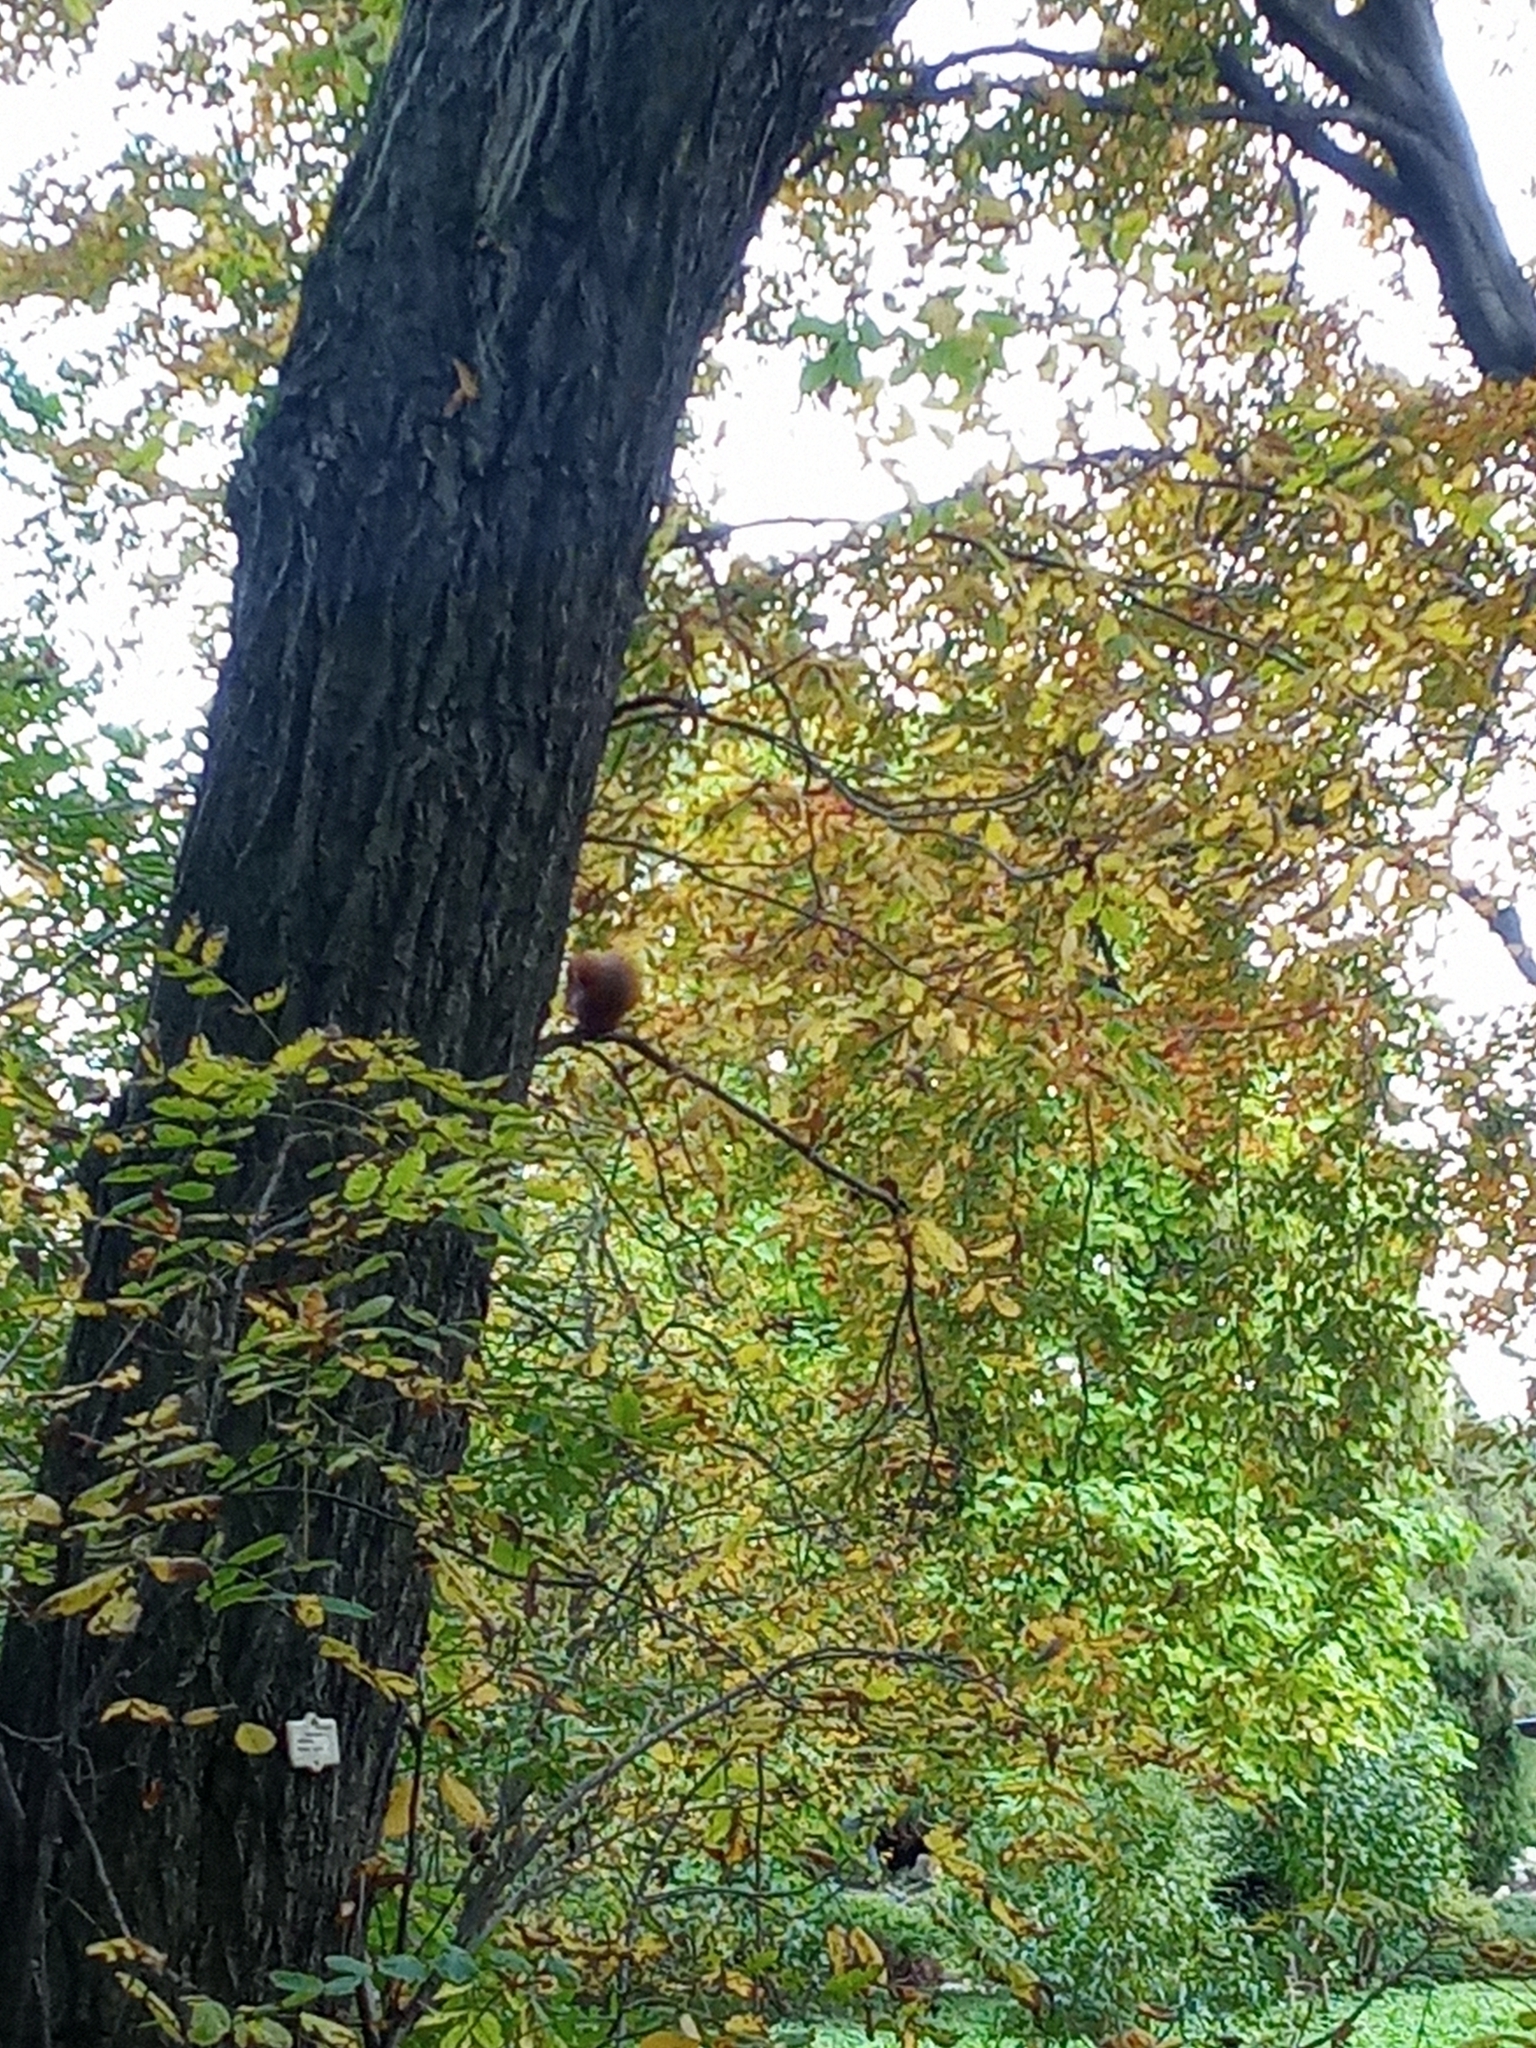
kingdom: Animalia
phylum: Chordata
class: Mammalia
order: Rodentia
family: Sciuridae
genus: Sciurus
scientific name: Sciurus vulgaris
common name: Eurasian red squirrel
